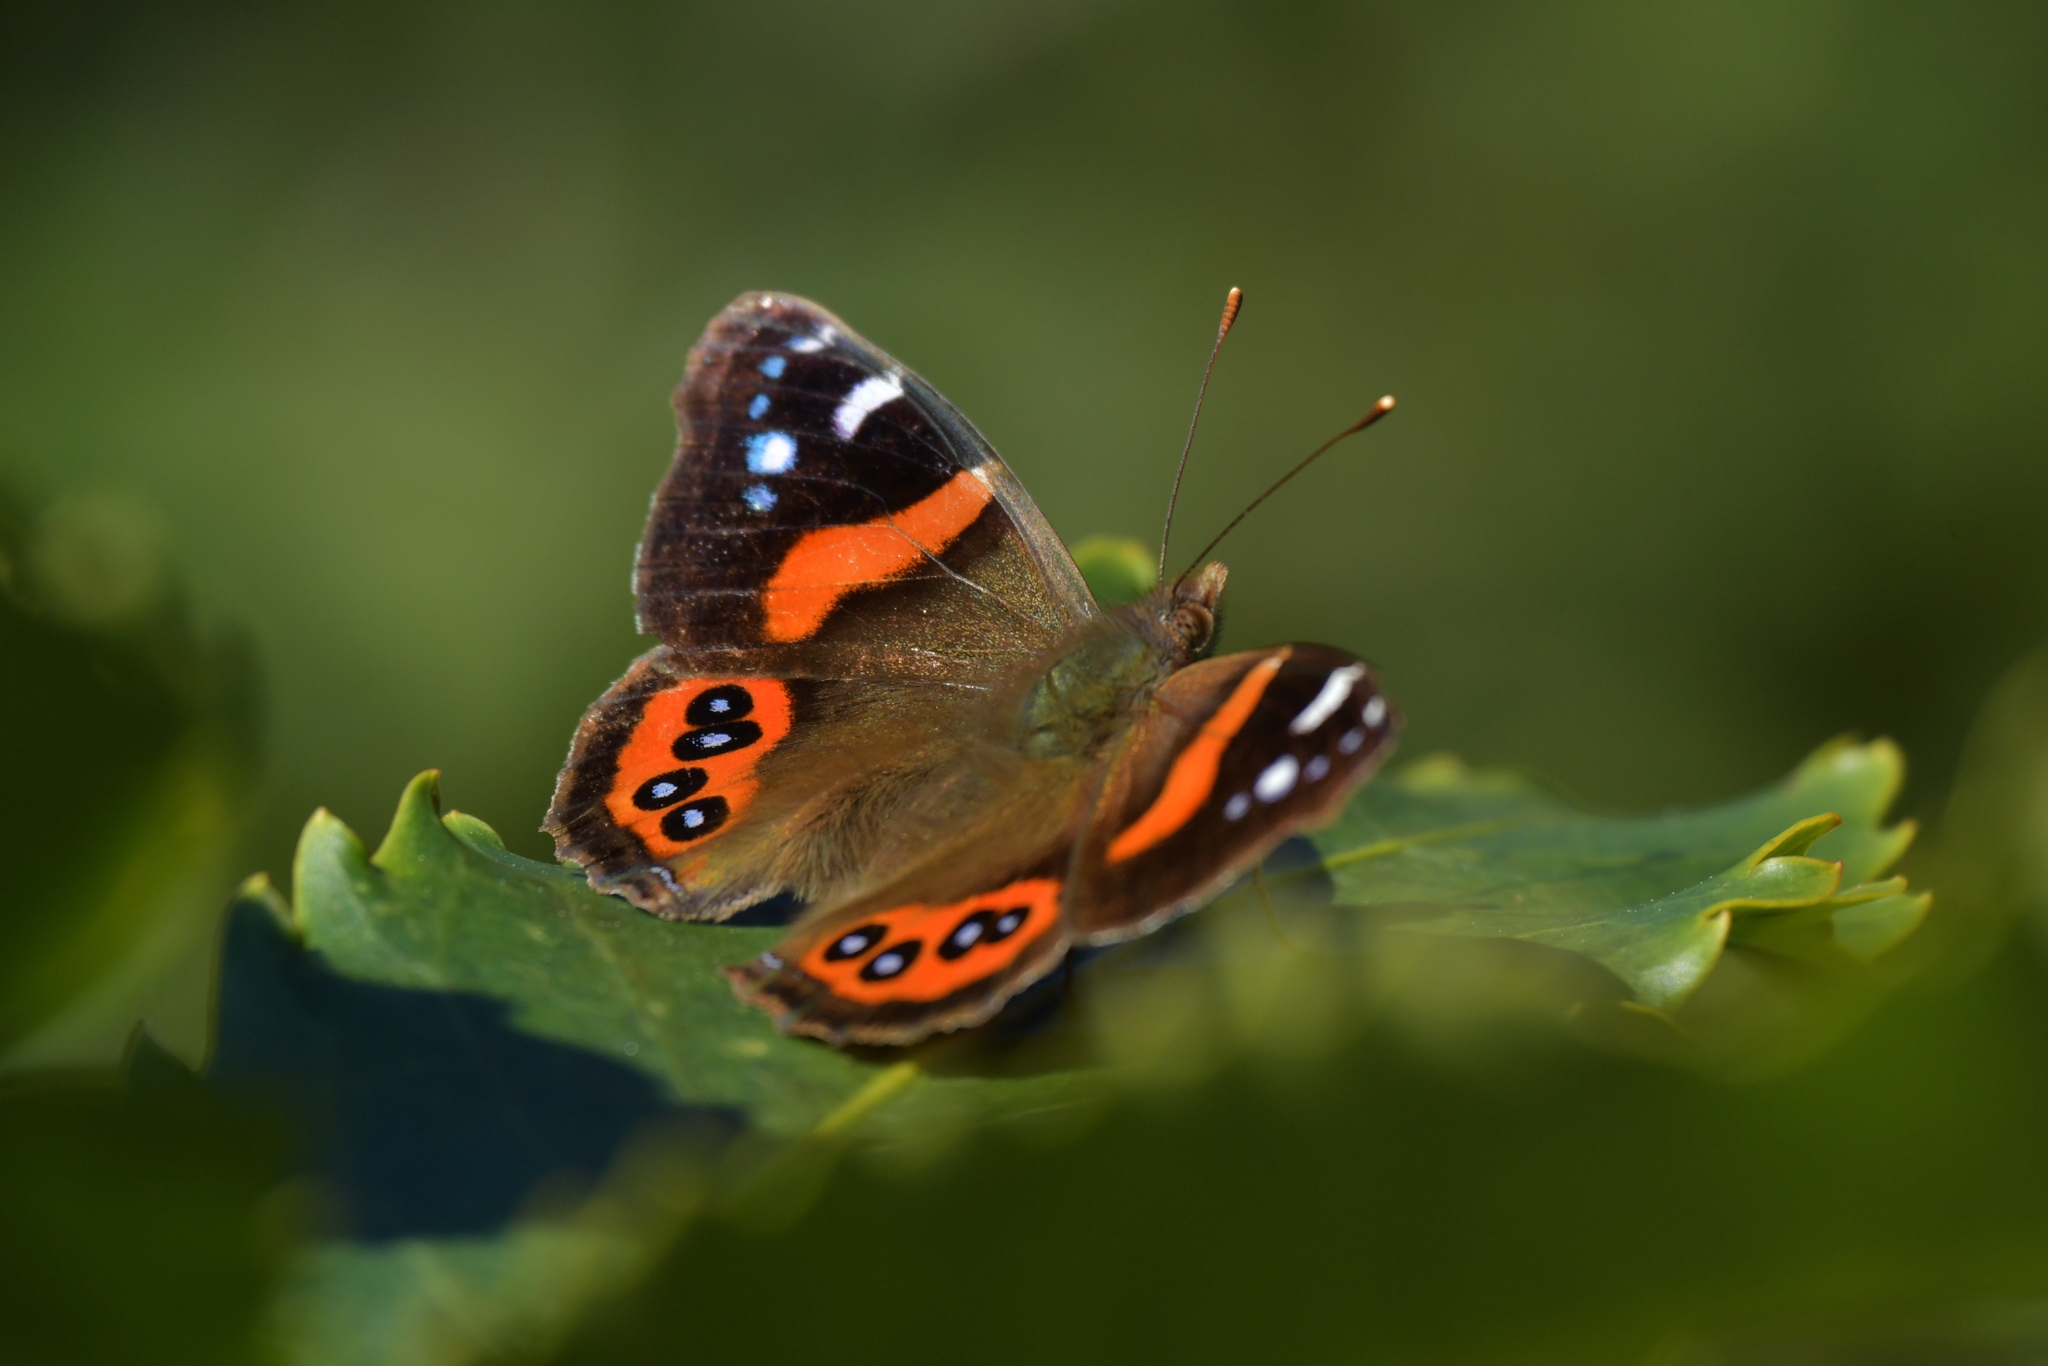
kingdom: Animalia
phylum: Arthropoda
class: Insecta
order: Lepidoptera
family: Nymphalidae
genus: Vanessa
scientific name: Vanessa gonerilla
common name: New zealand red admiral
